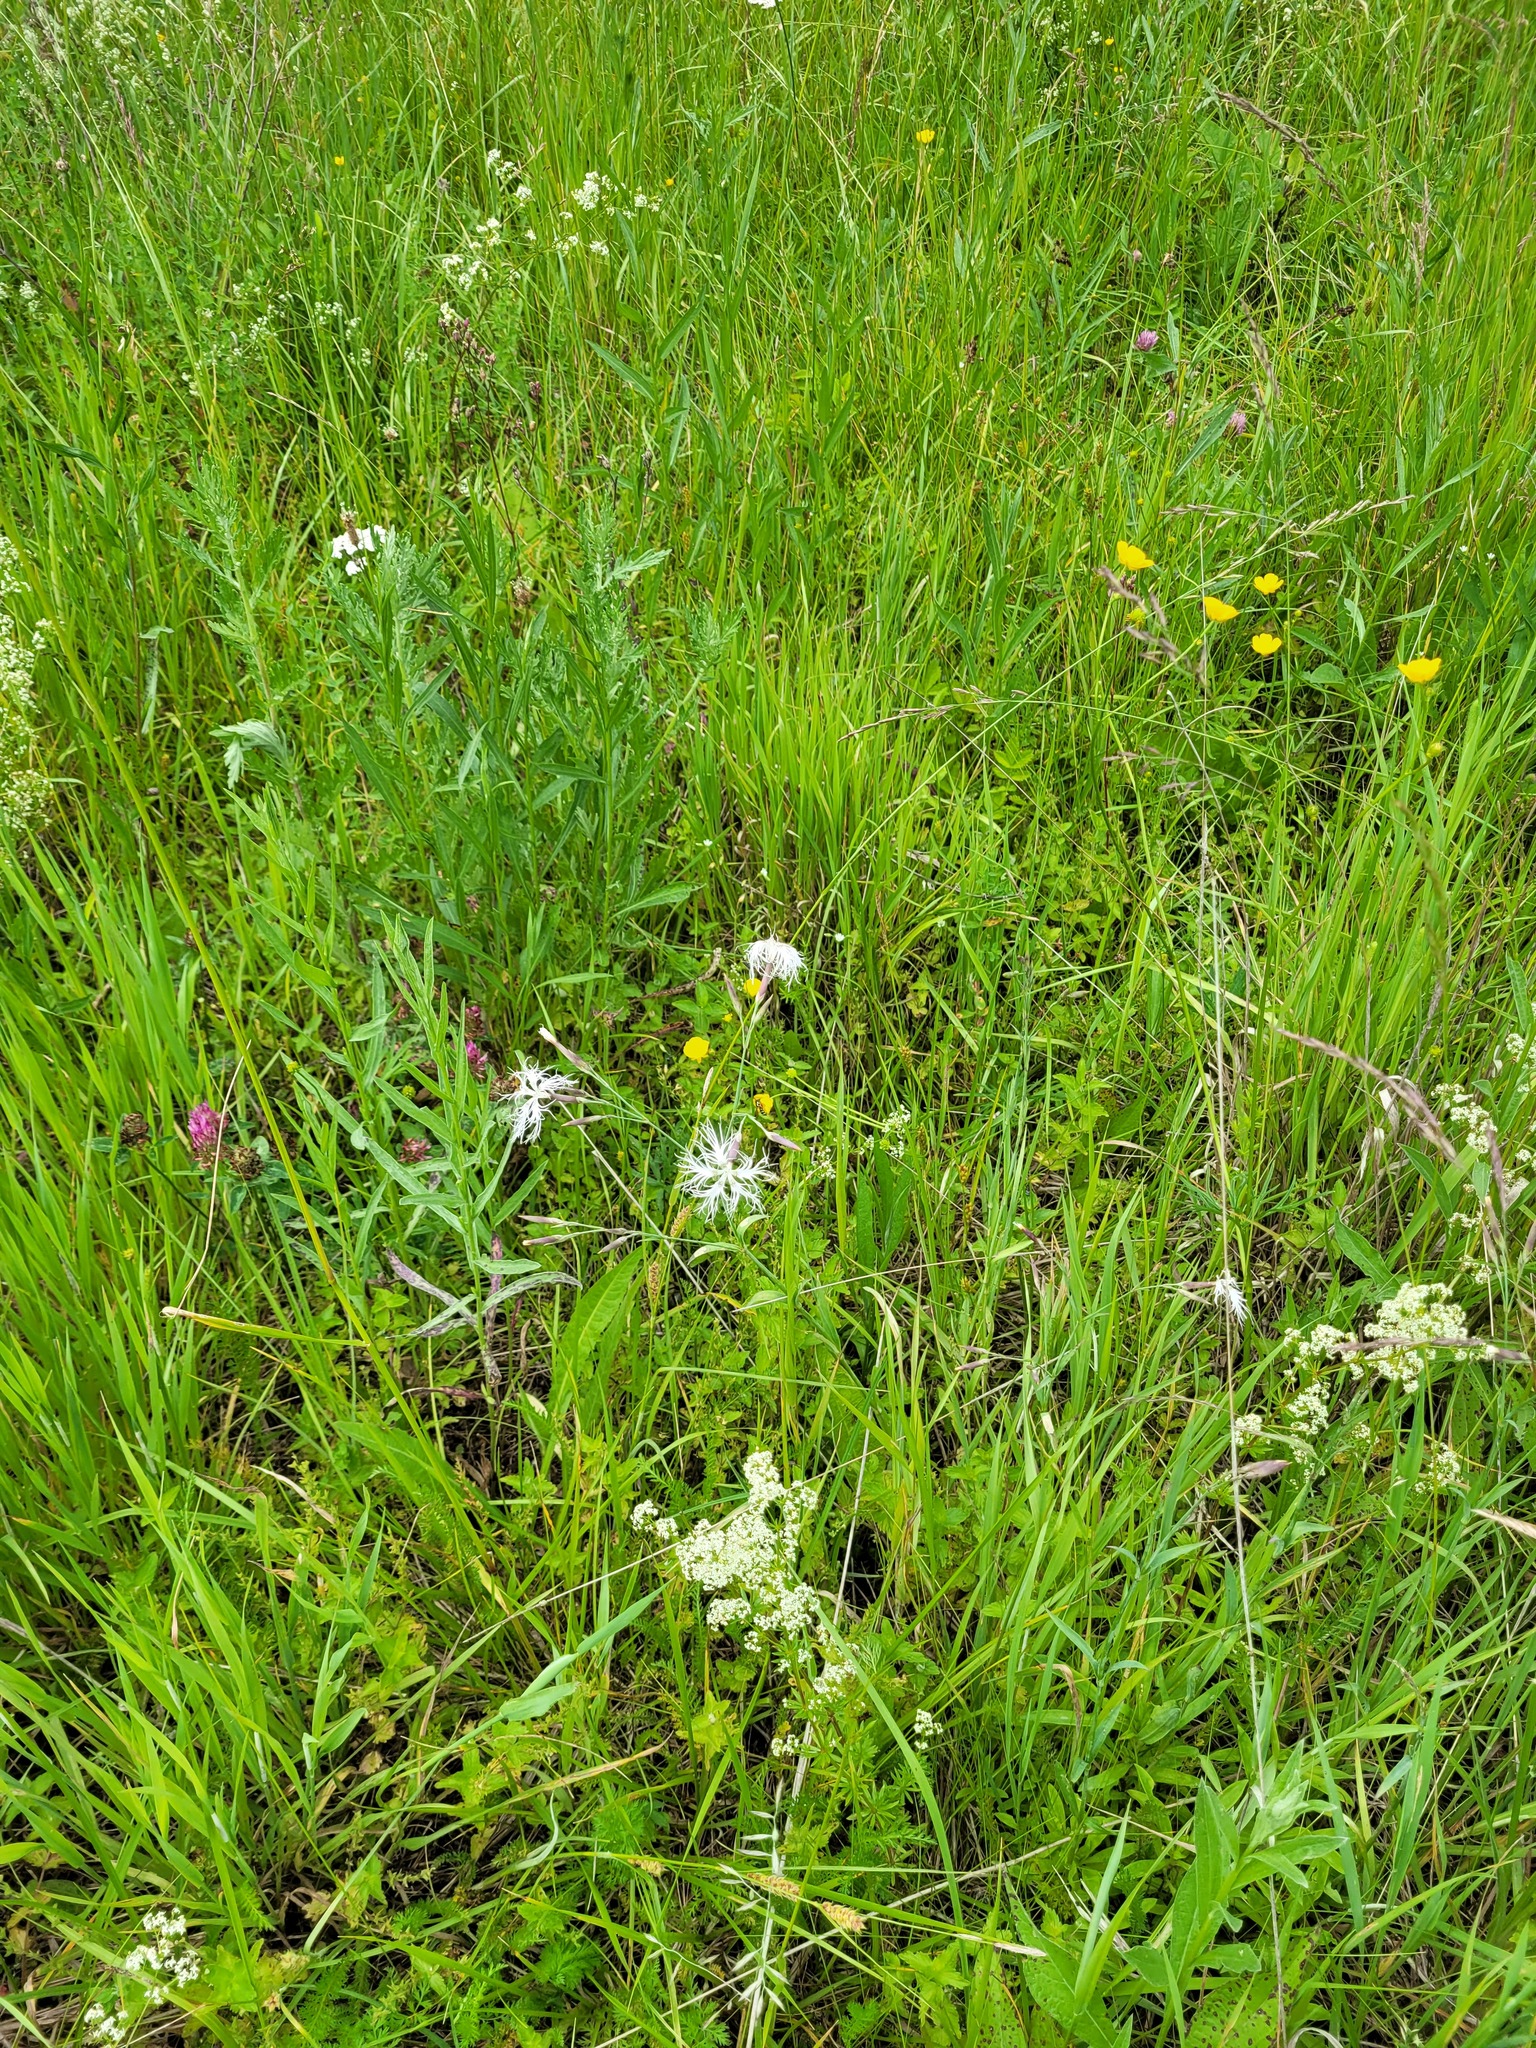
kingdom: Plantae
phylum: Tracheophyta
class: Magnoliopsida
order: Caryophyllales
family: Caryophyllaceae
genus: Dianthus
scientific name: Dianthus superbus
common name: Fringed pink
